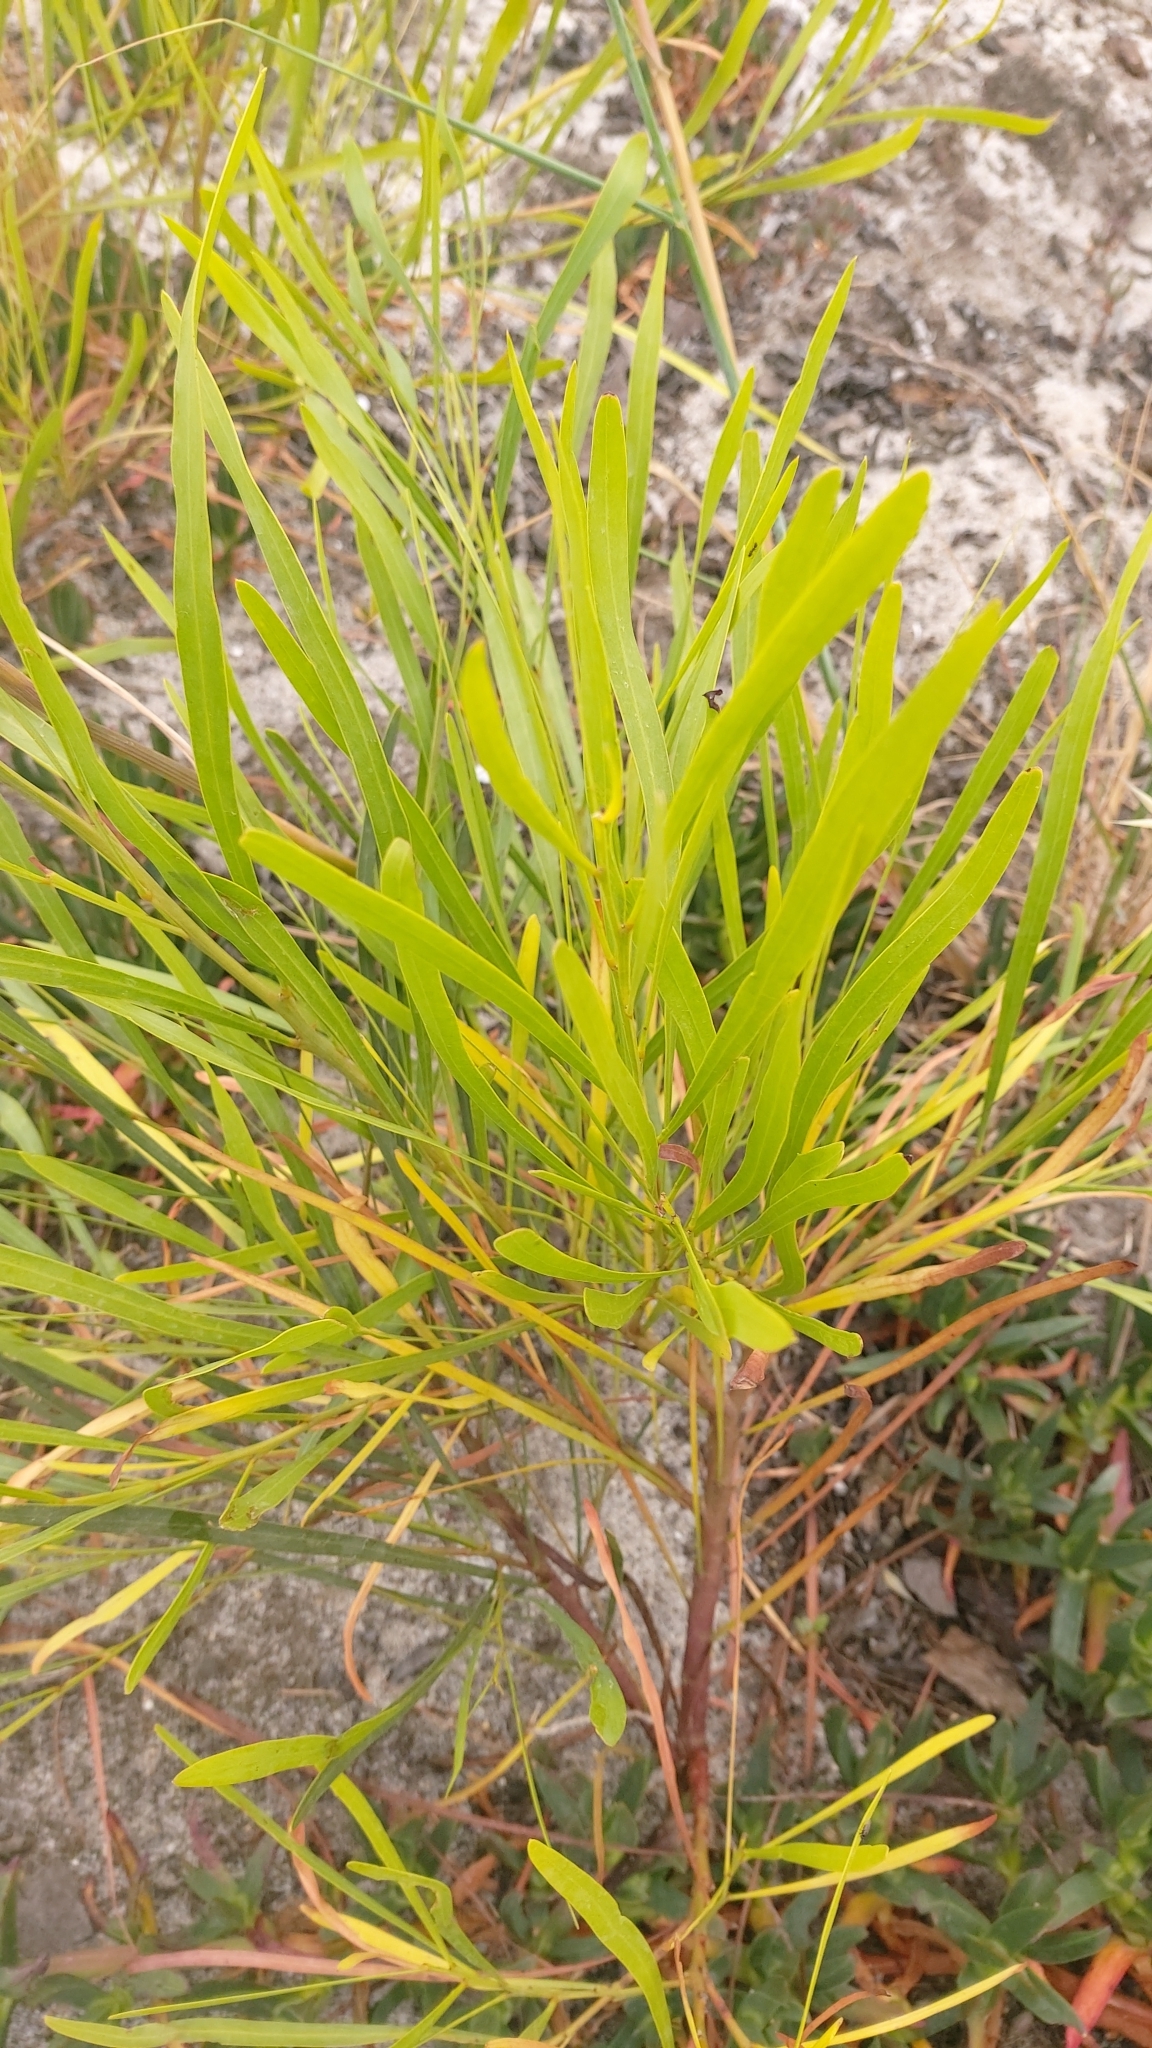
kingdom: Plantae
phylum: Tracheophyta
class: Magnoliopsida
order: Fabales
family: Fabaceae
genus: Acacia
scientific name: Acacia retinodes
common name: Silver wattle
